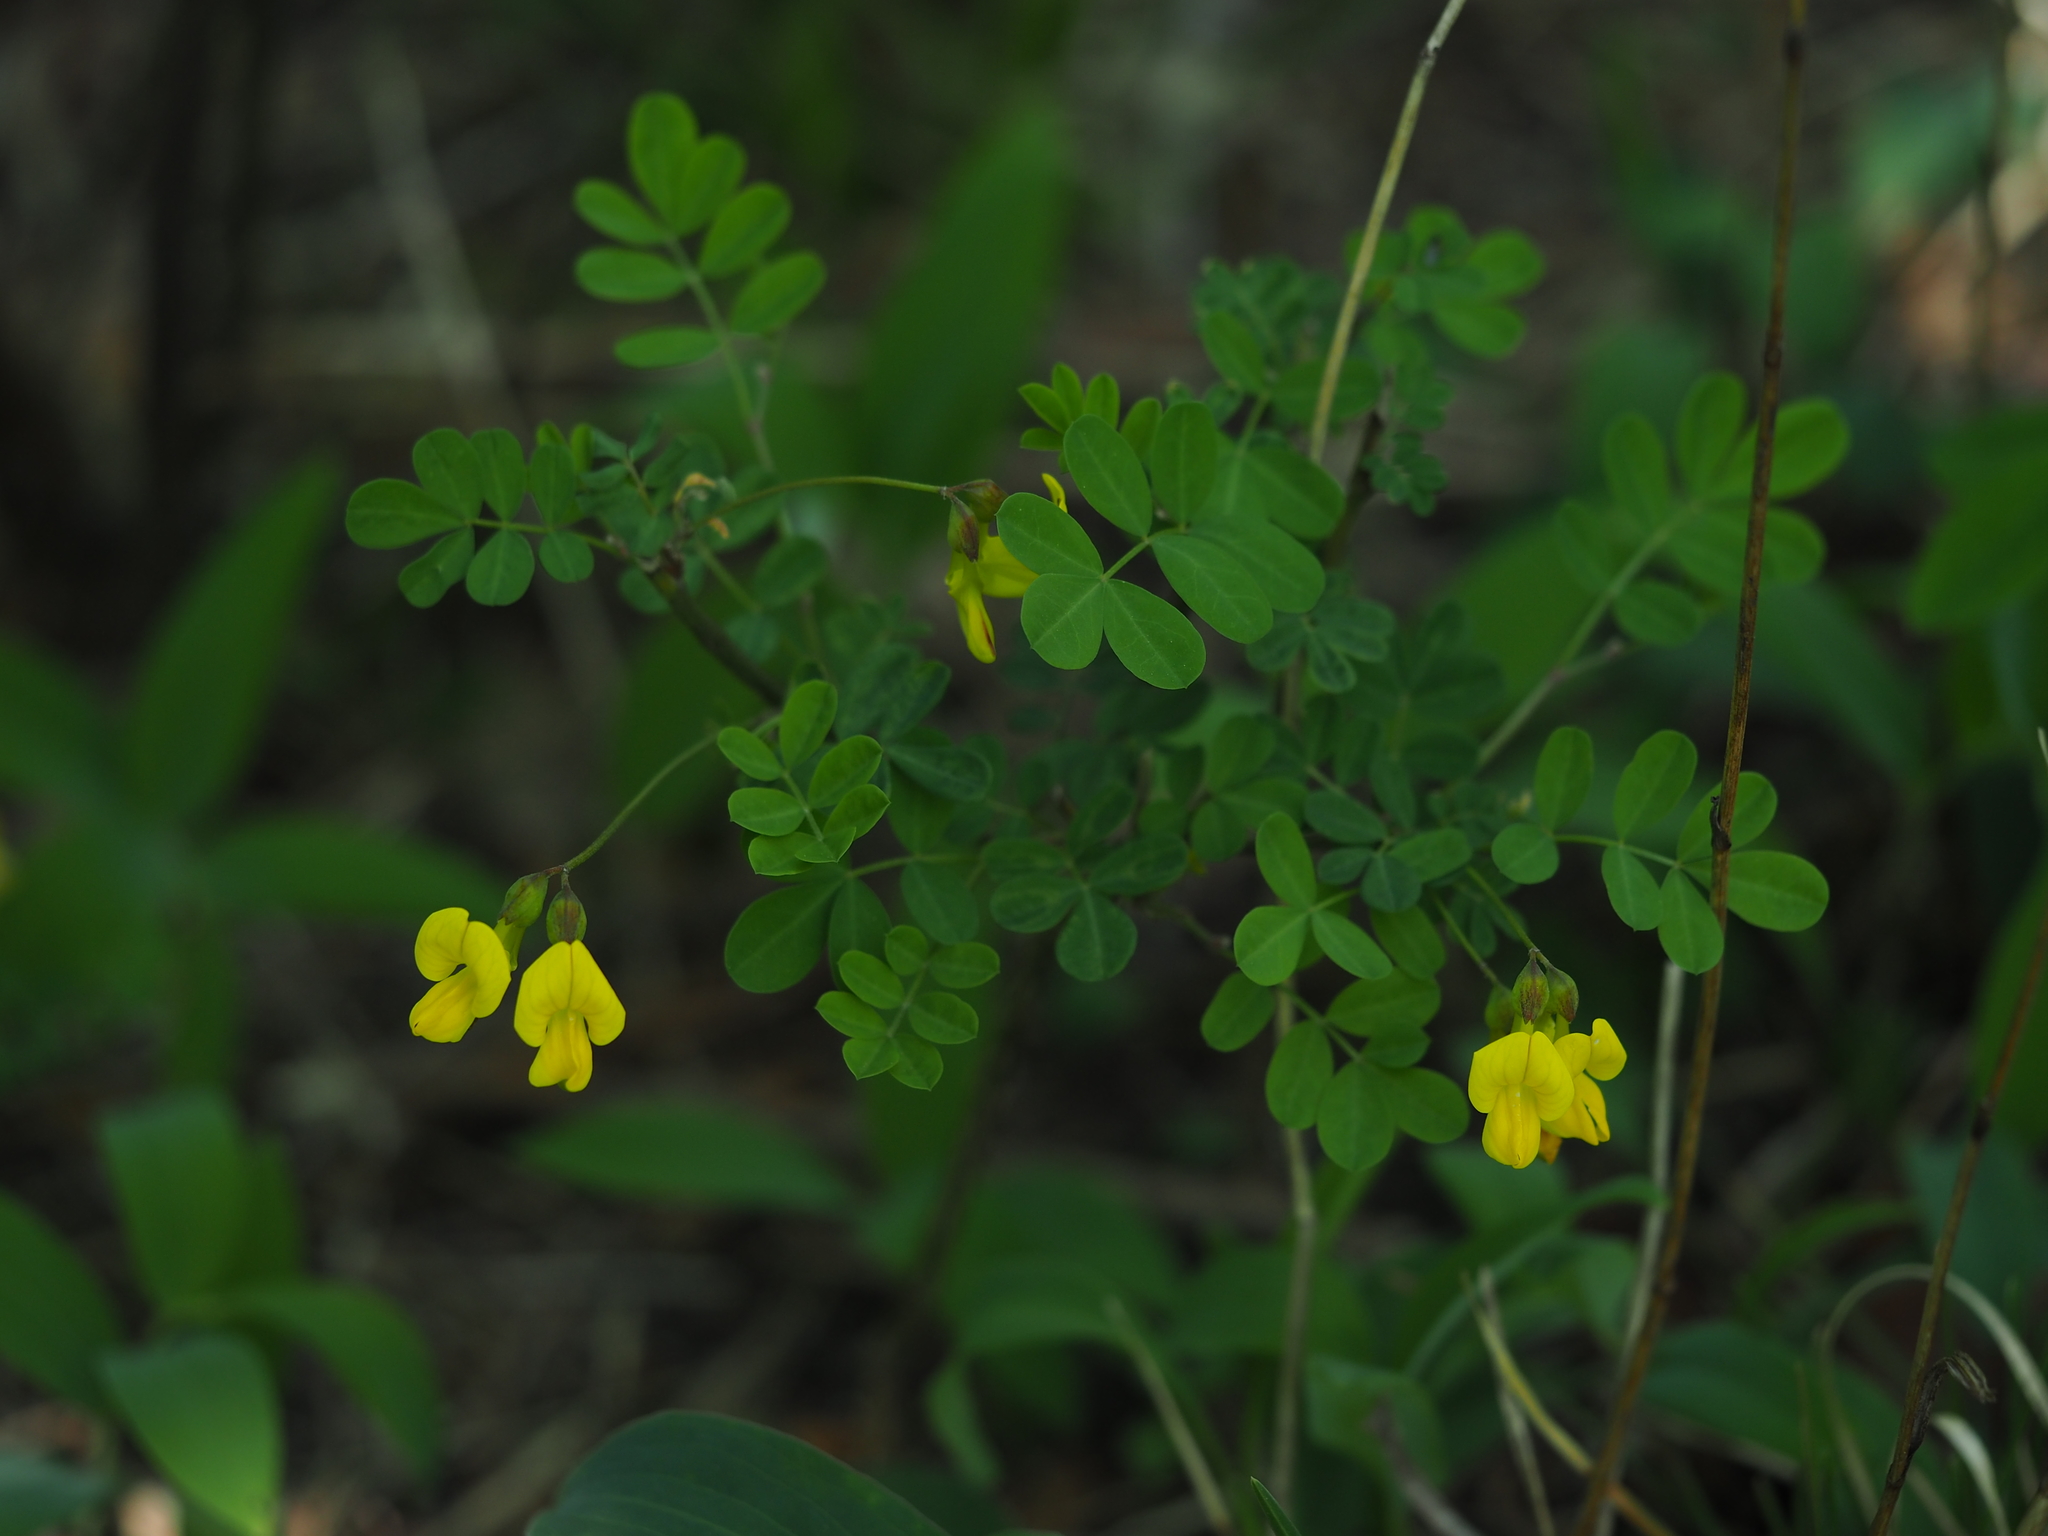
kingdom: Plantae
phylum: Tracheophyta
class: Magnoliopsida
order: Fabales
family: Fabaceae
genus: Hippocrepis
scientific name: Hippocrepis emerus
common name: Scorpion senna
